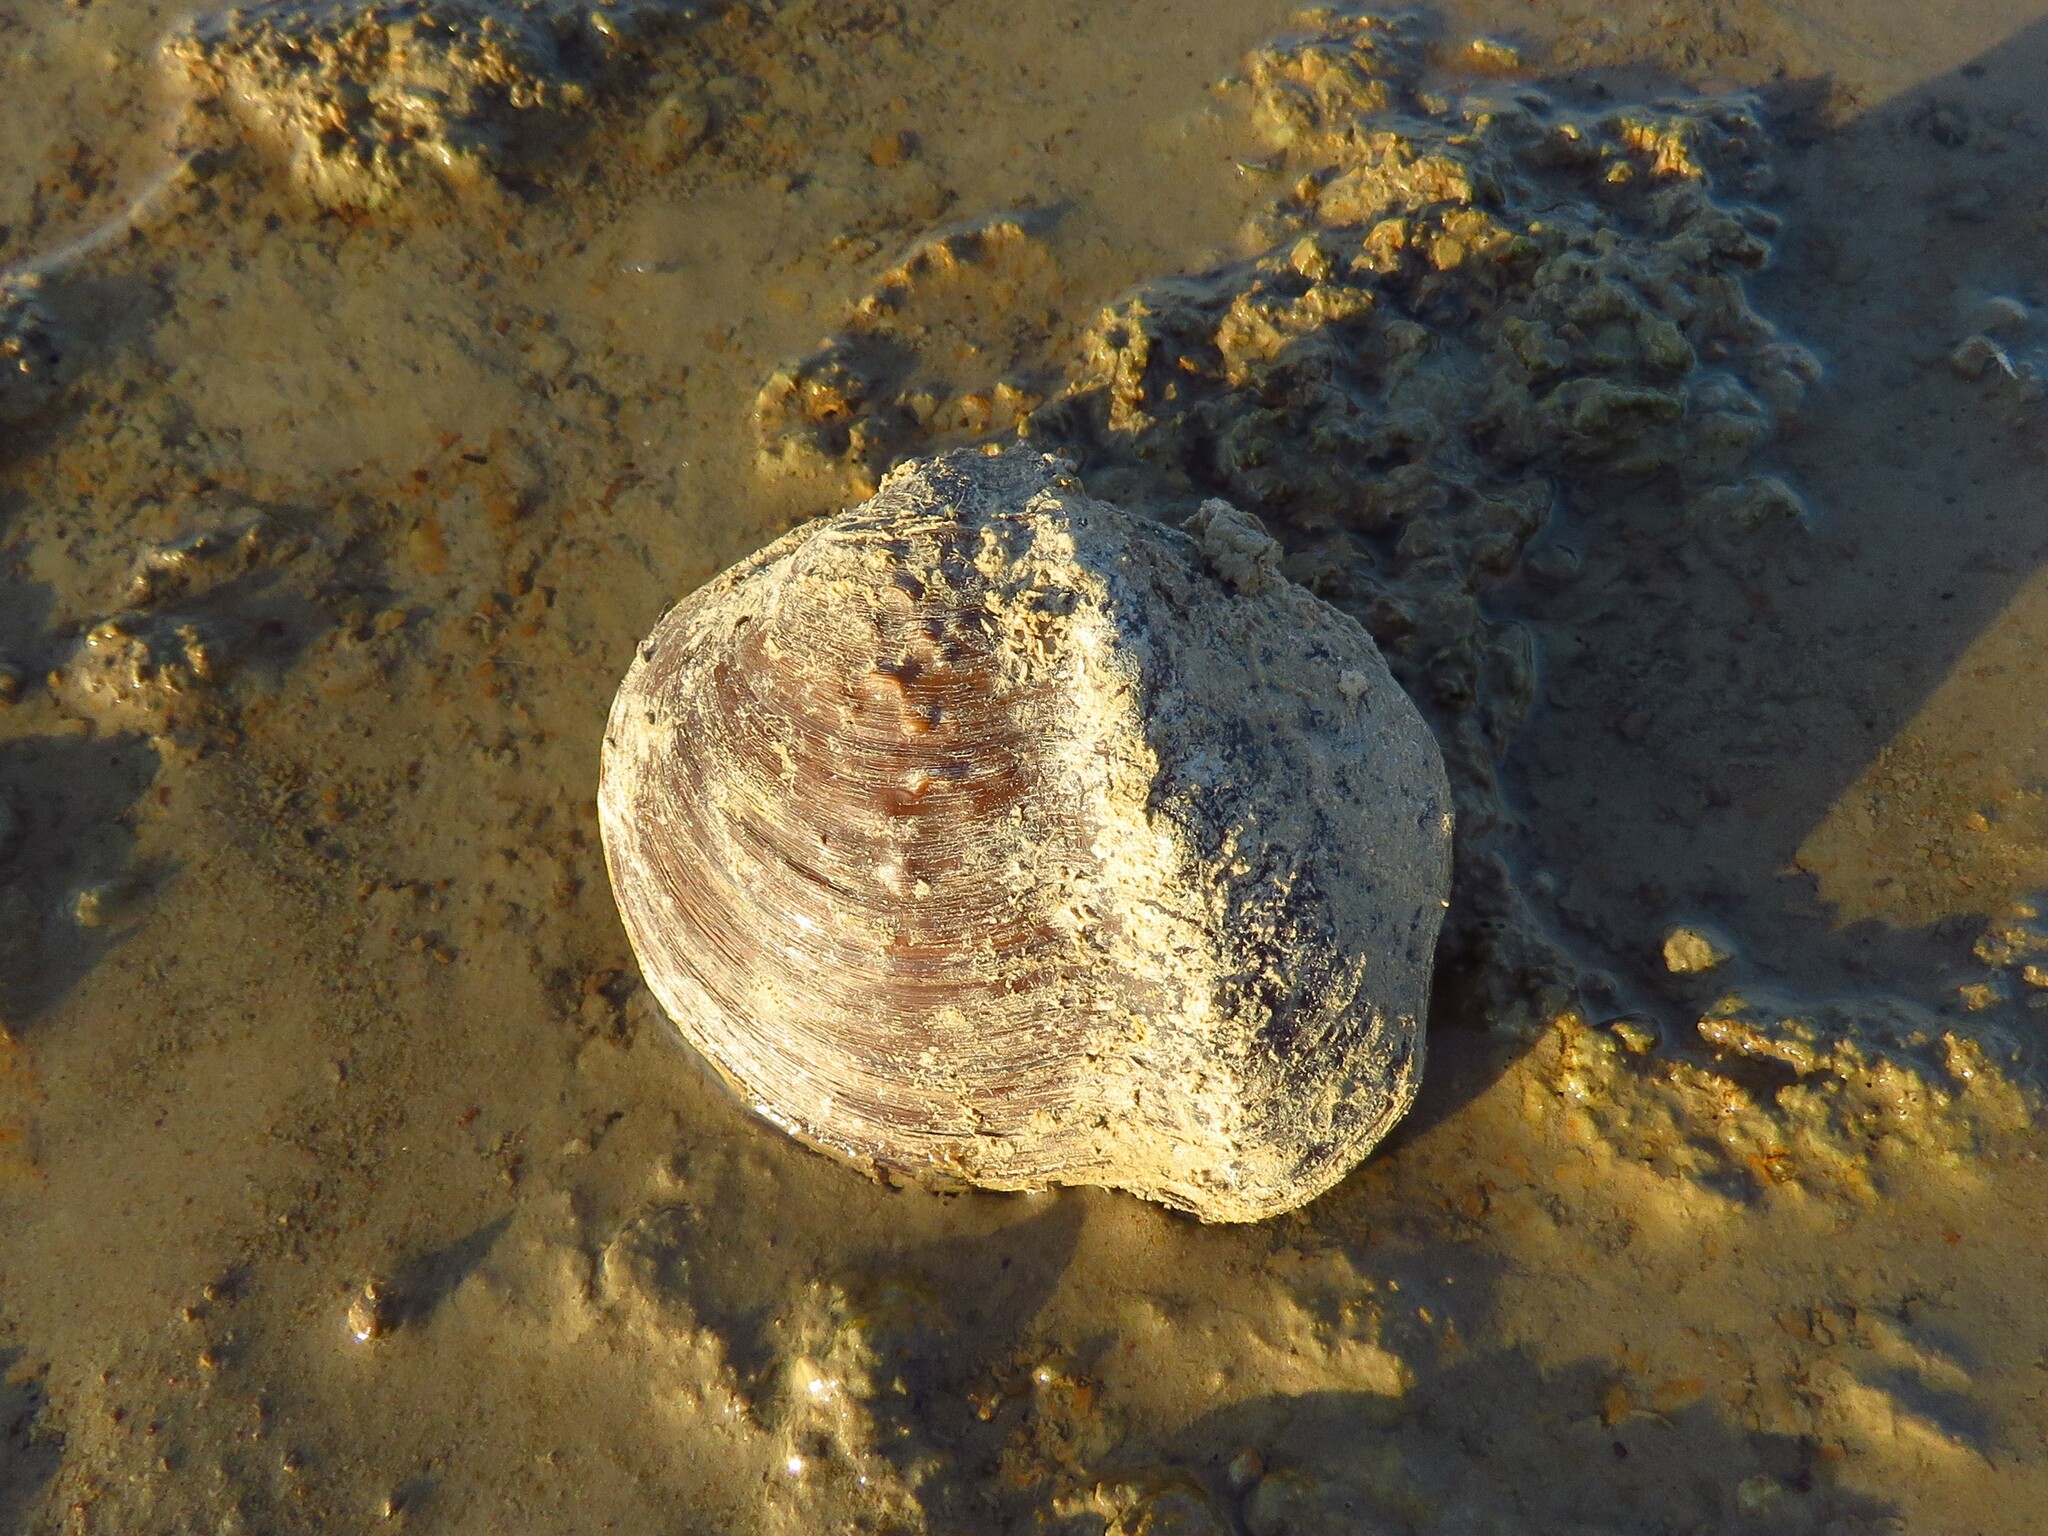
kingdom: Animalia
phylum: Mollusca
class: Bivalvia
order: Unionida
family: Unionidae
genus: Quadrula
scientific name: Quadrula quadrula
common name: Mapleleaf
